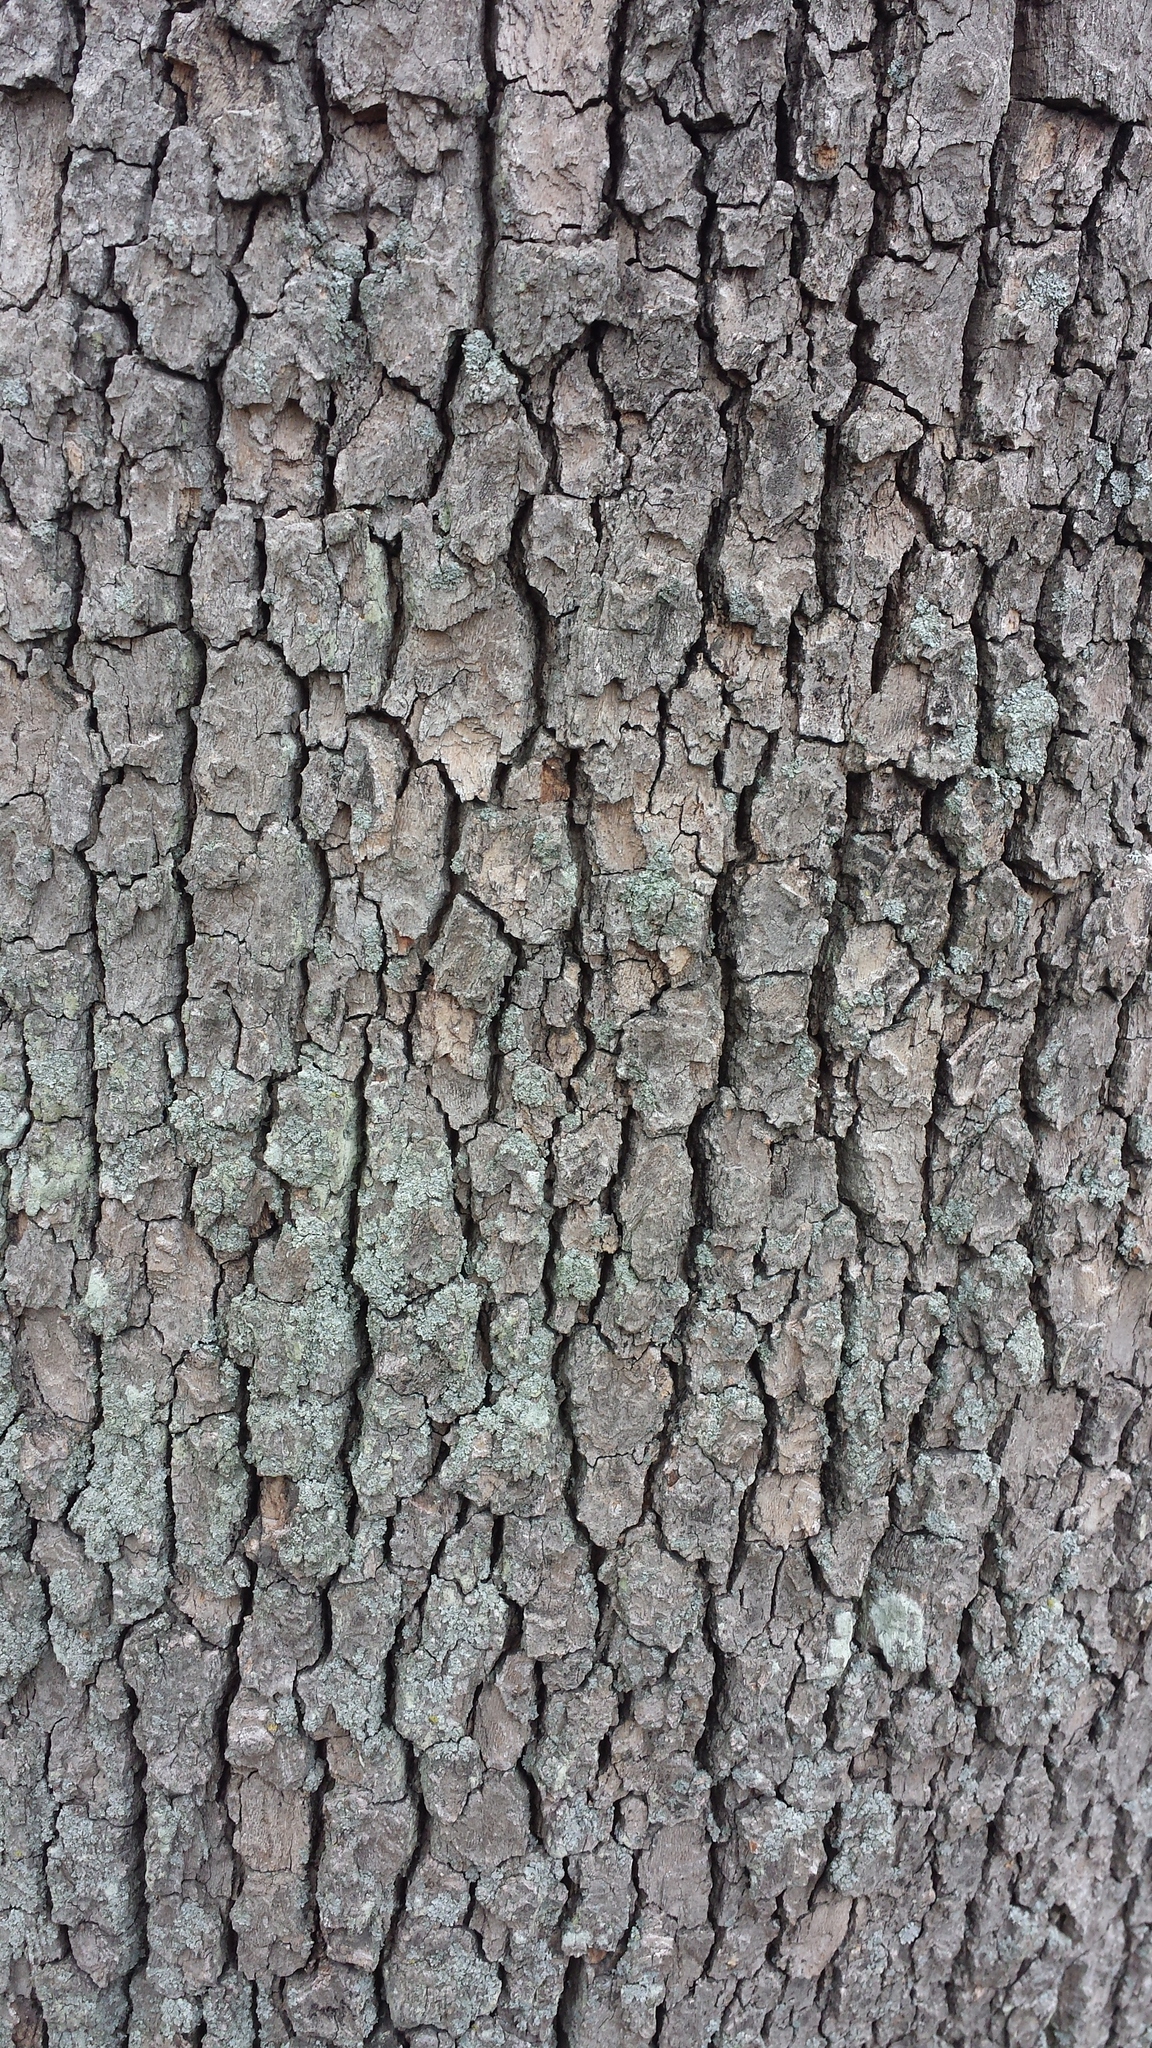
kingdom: Plantae
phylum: Tracheophyta
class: Magnoliopsida
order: Proteales
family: Platanaceae
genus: Platanus
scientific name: Platanus occidentalis
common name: American sycamore
